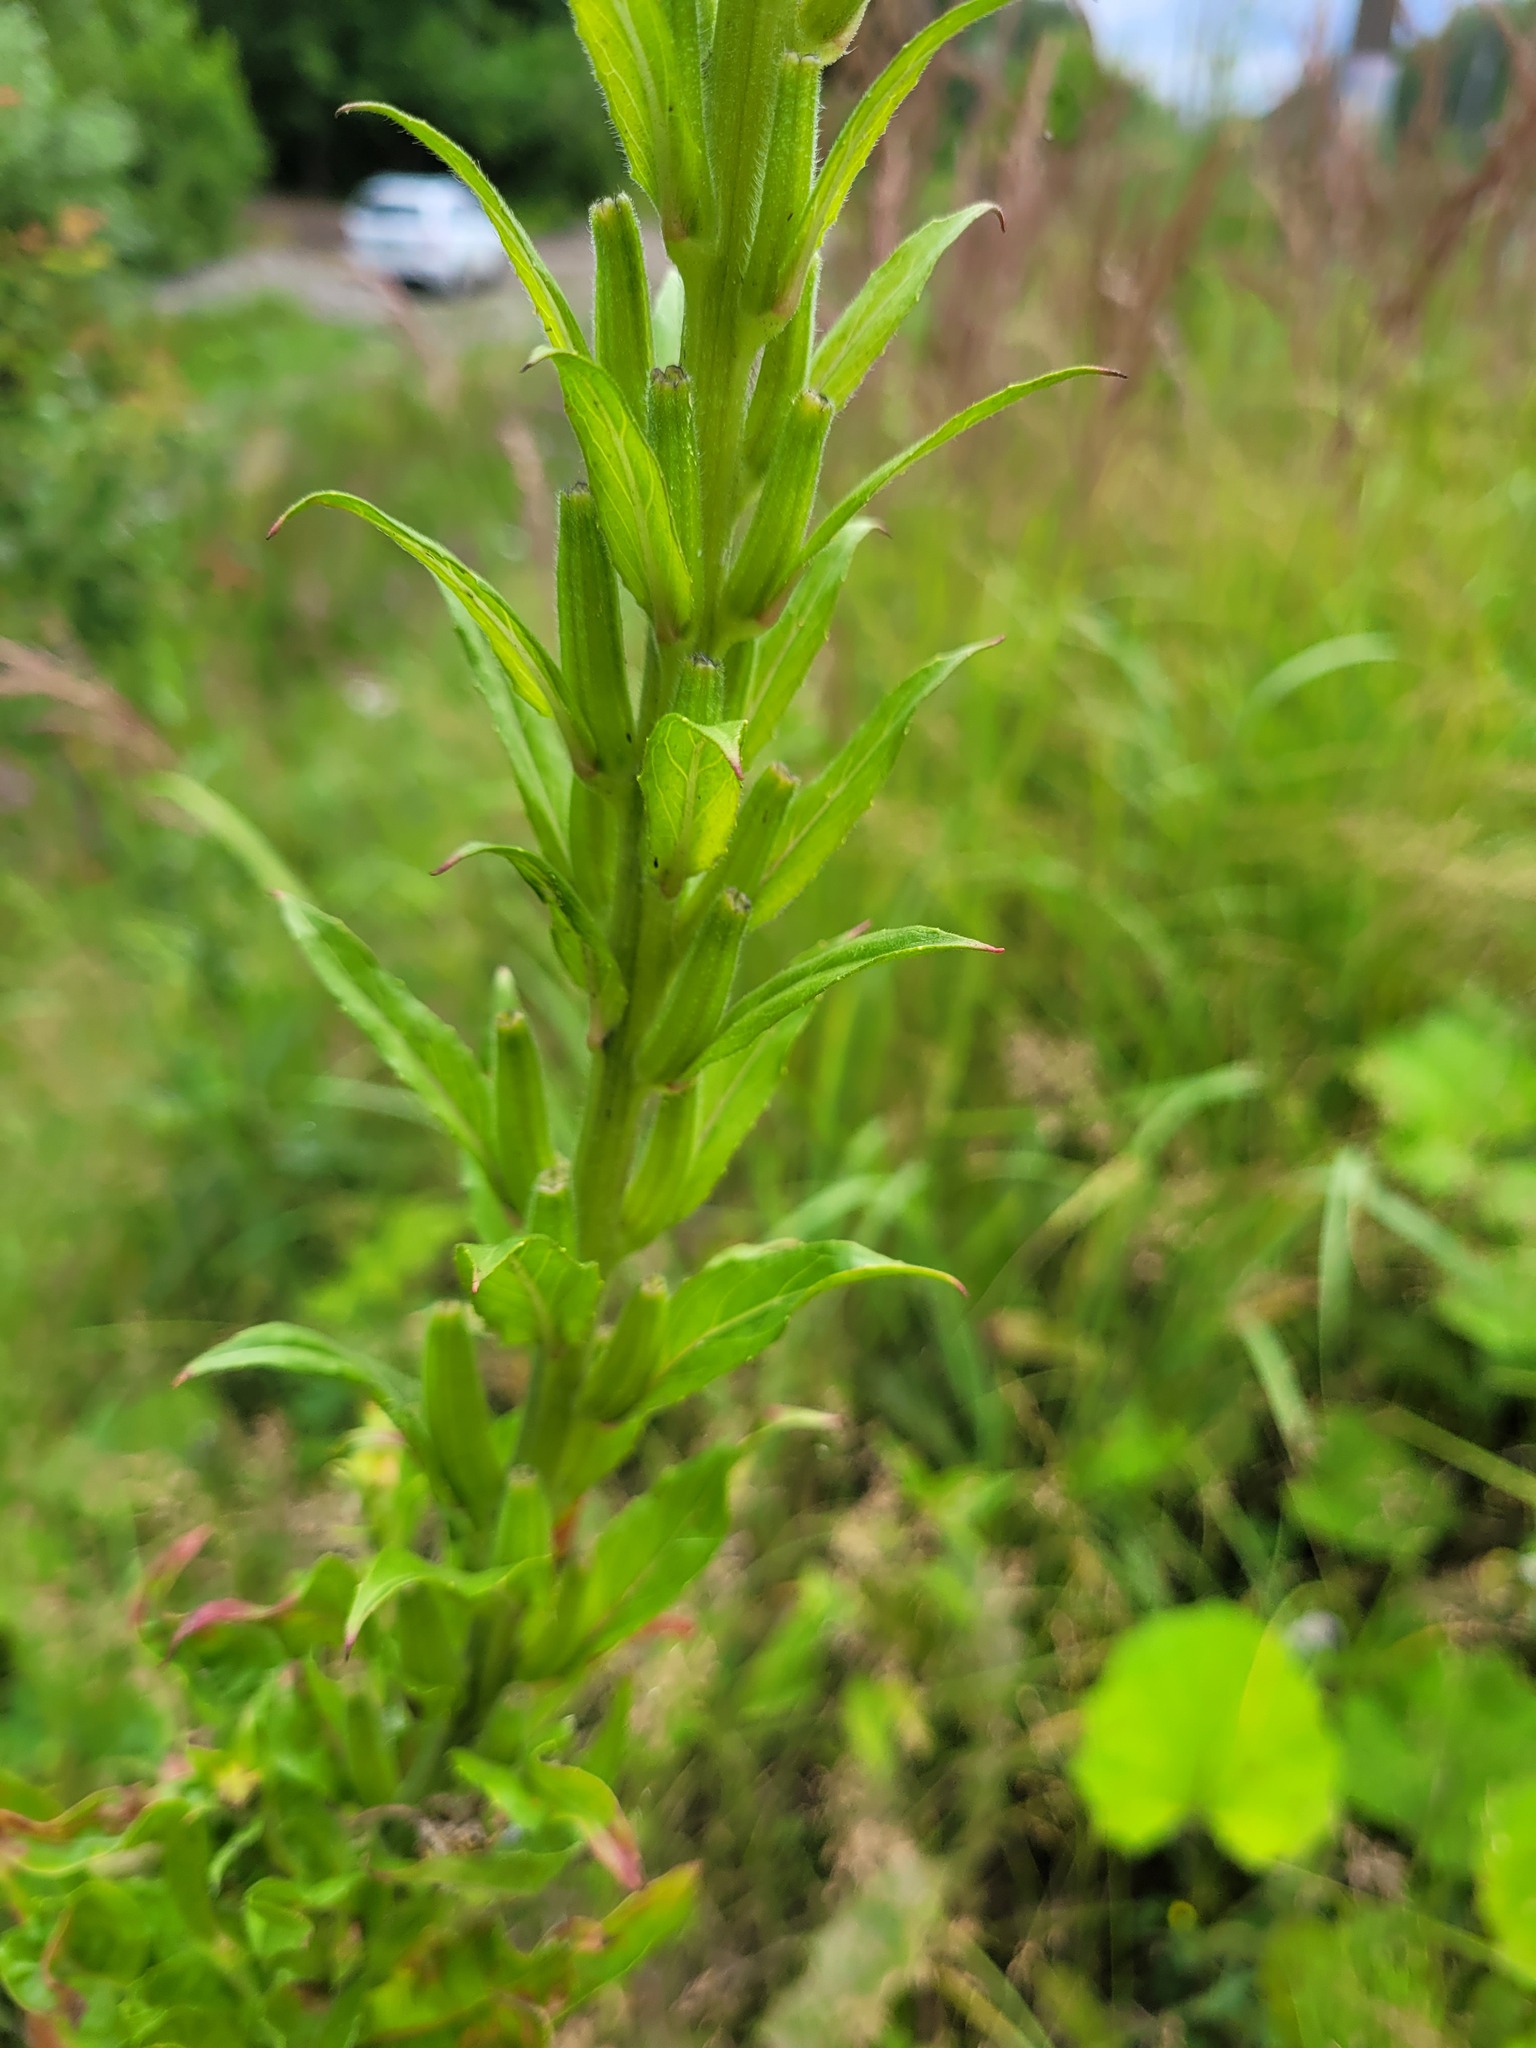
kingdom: Plantae
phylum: Tracheophyta
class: Magnoliopsida
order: Myrtales
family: Onagraceae
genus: Oenothera
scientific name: Oenothera biennis
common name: Common evening-primrose
